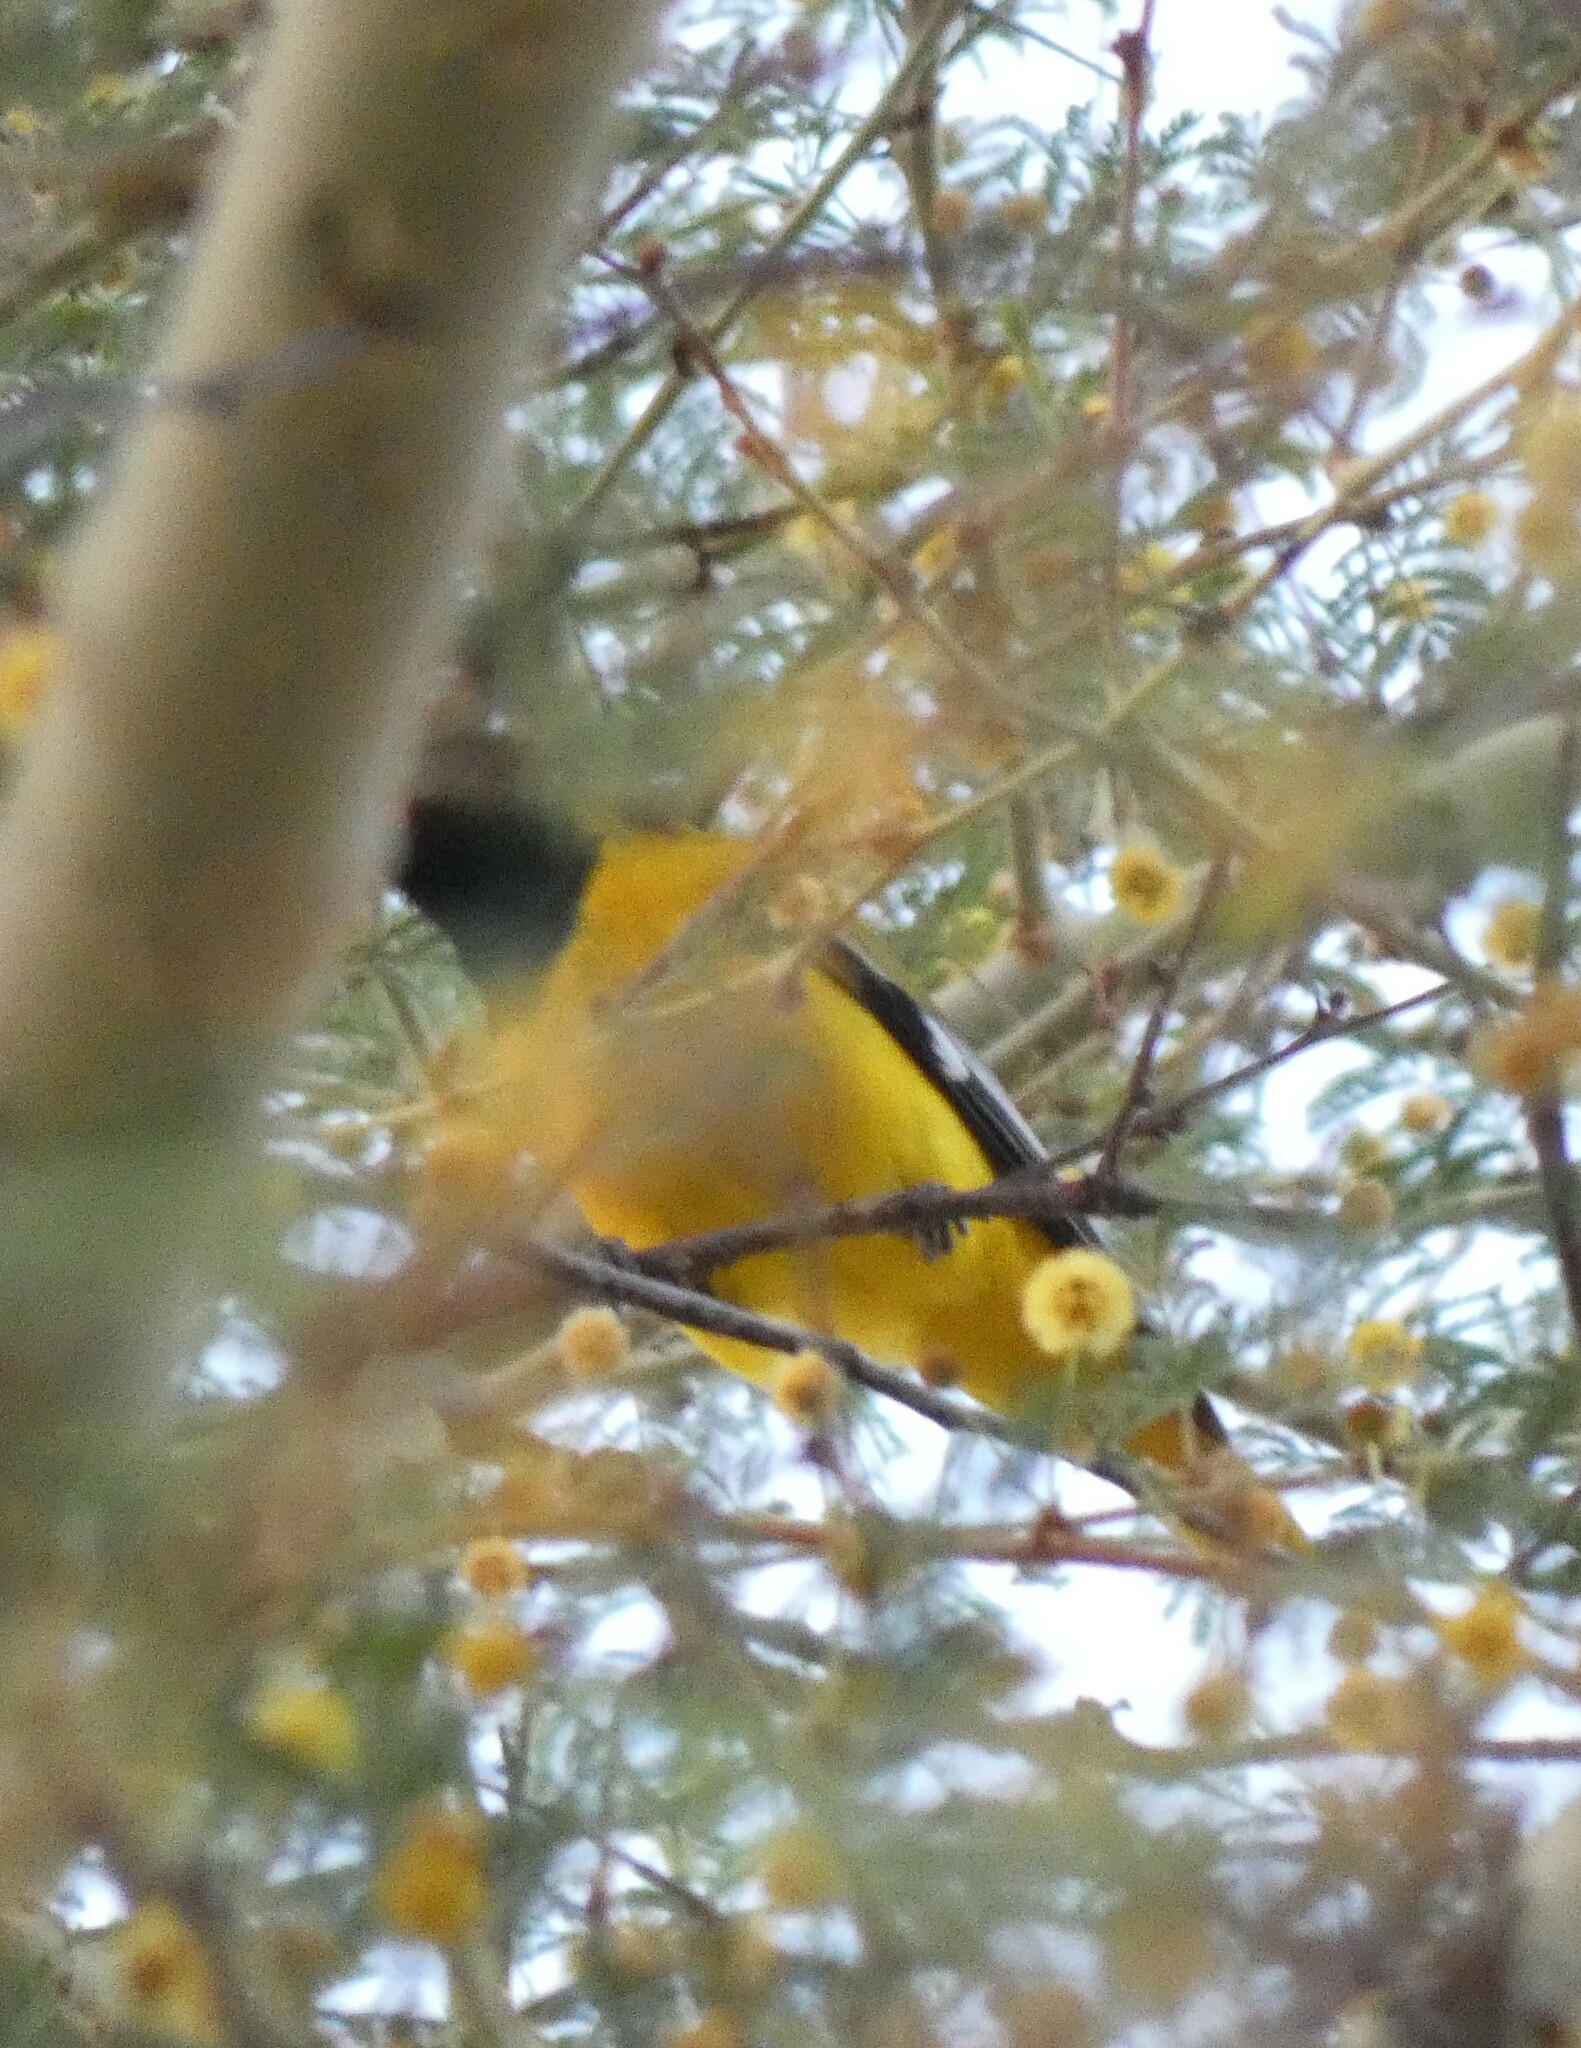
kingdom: Animalia
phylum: Chordata
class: Aves
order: Passeriformes
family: Oriolidae
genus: Oriolus
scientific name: Oriolus larvatus
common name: Black-headed oriole
